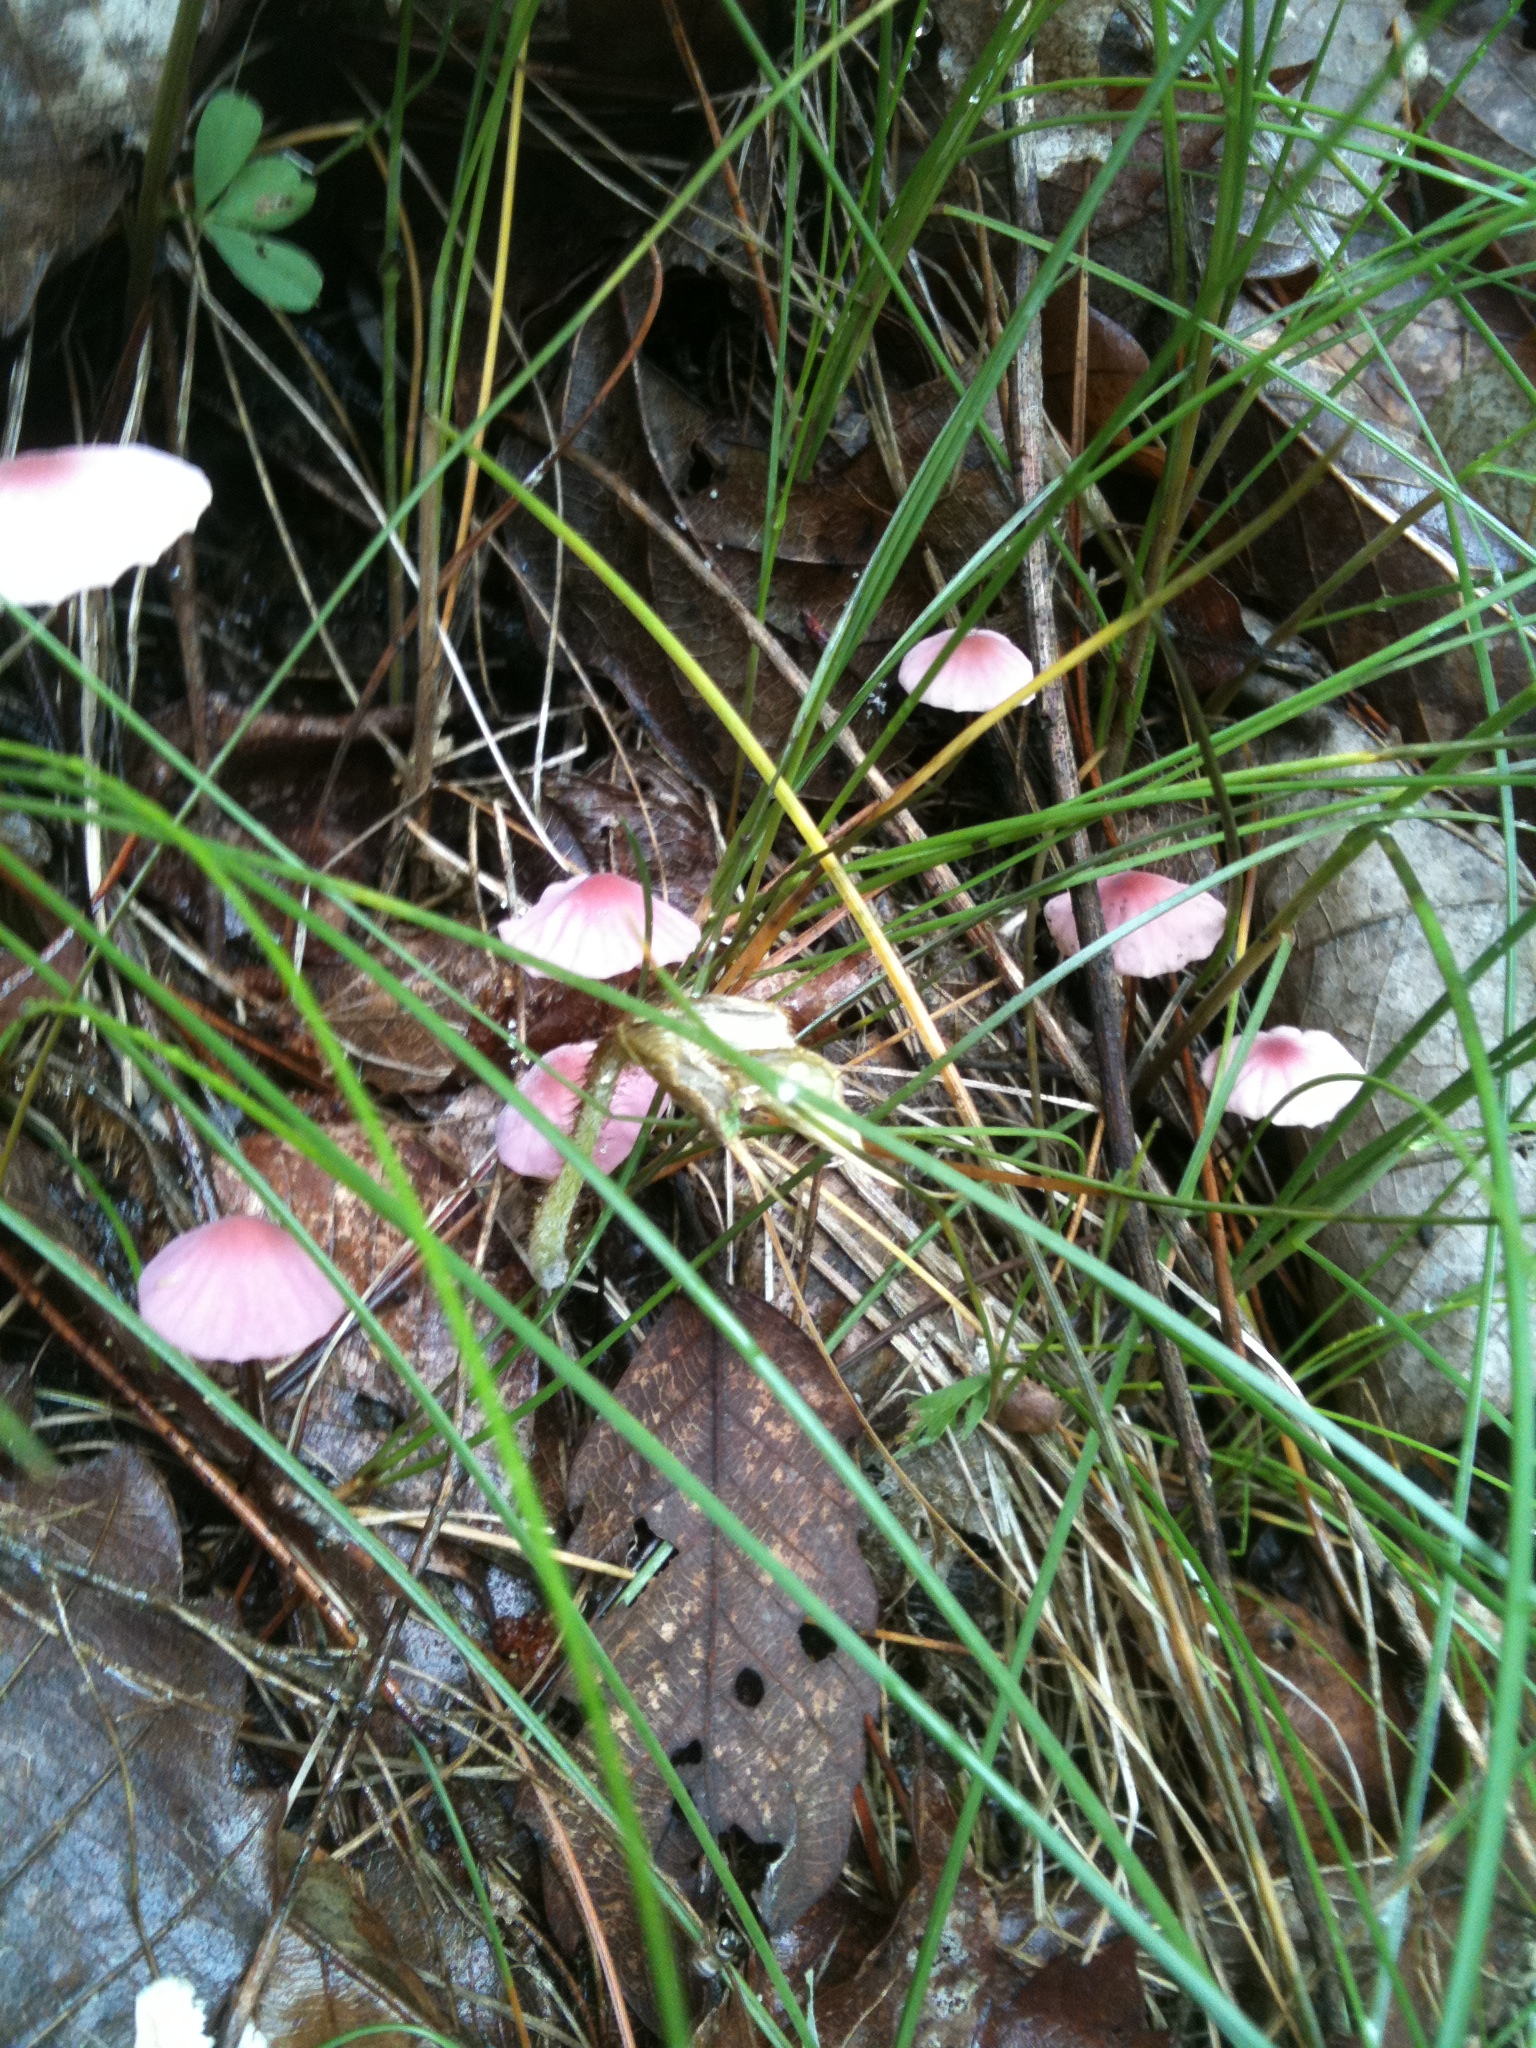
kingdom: Fungi
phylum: Basidiomycota
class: Agaricomycetes
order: Agaricales
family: Marasmiaceae
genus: Marasmius
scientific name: Marasmius pulcherripes
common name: Rosy parachute
